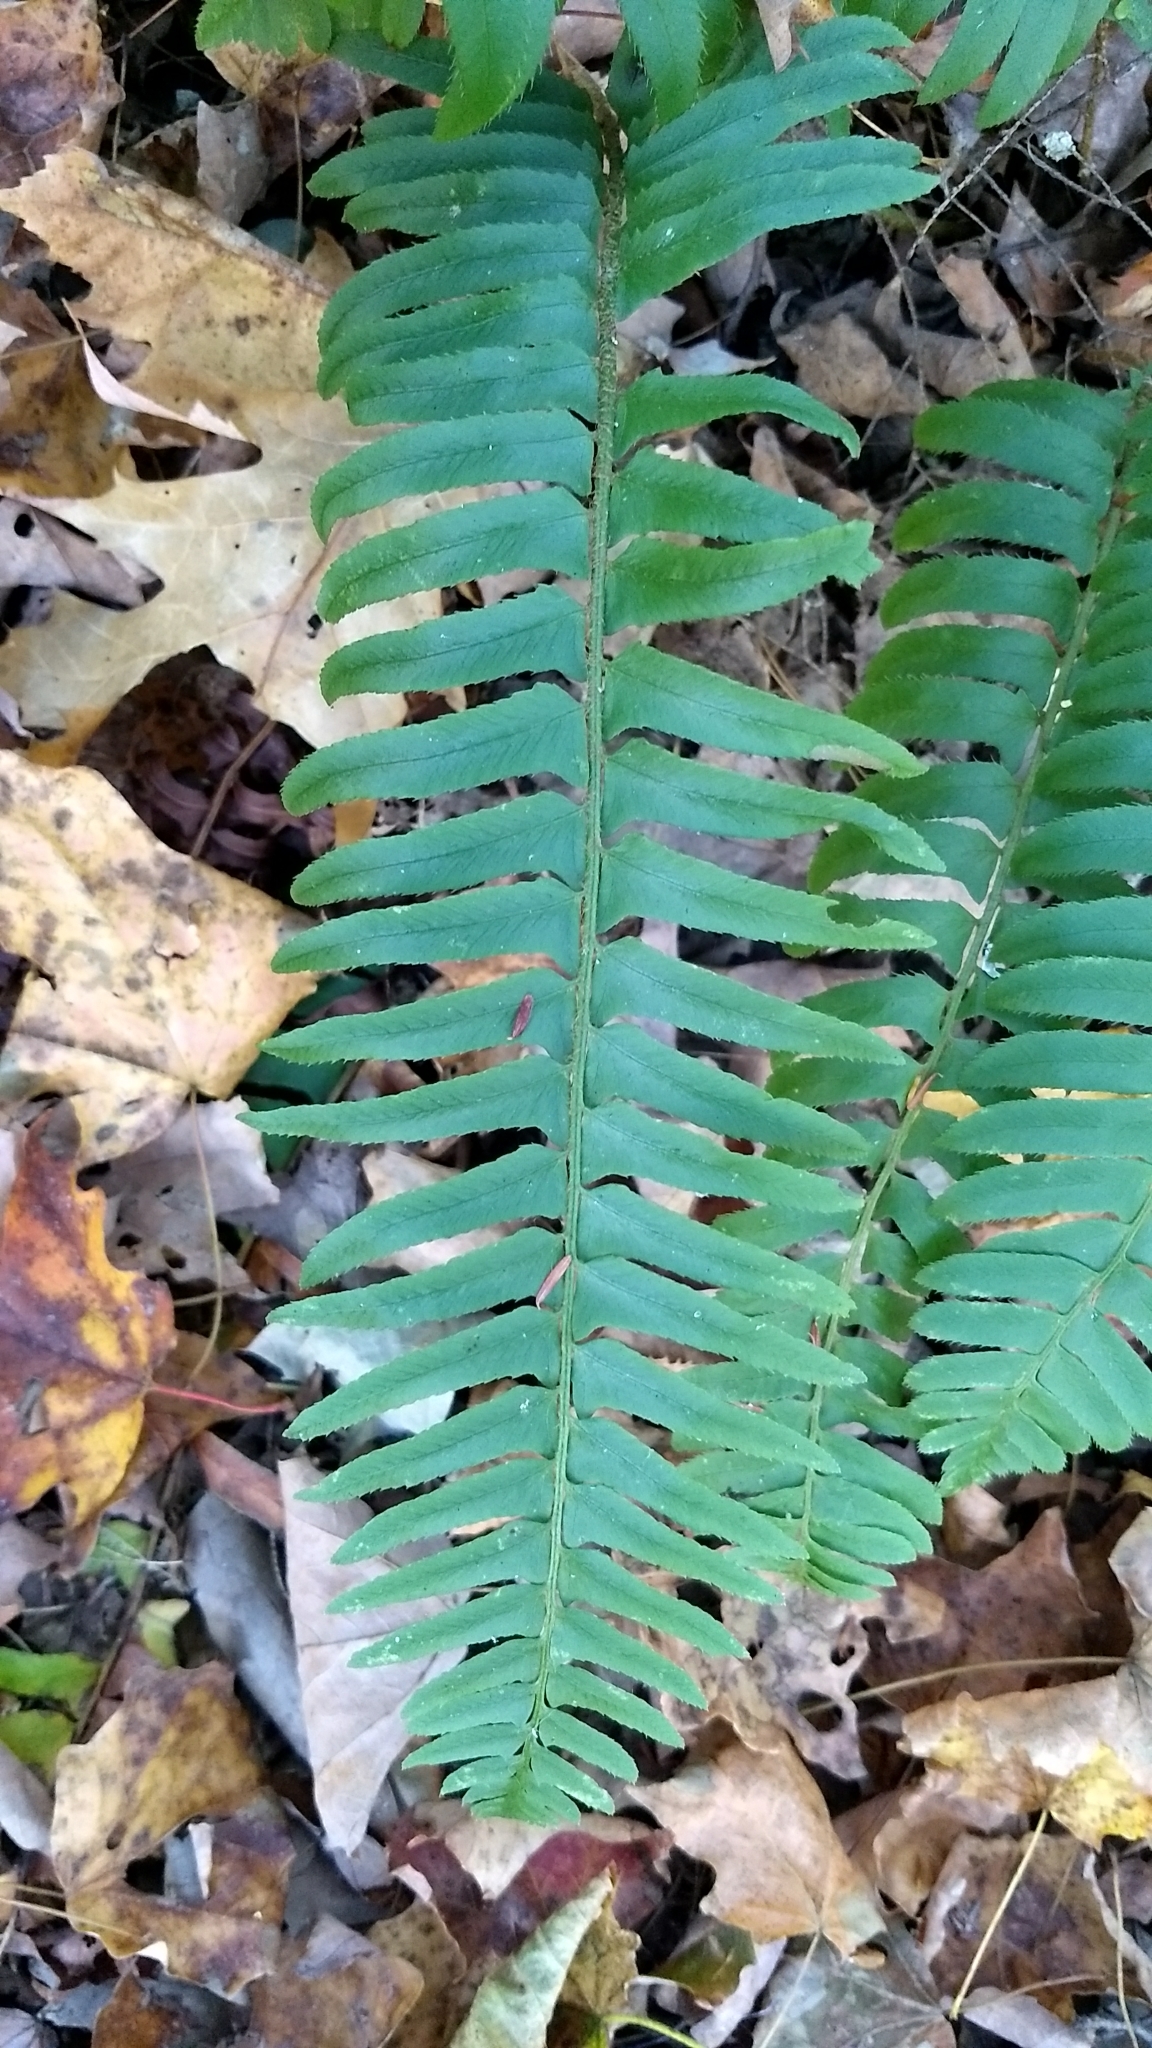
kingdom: Plantae
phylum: Tracheophyta
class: Polypodiopsida
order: Polypodiales
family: Dryopteridaceae
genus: Polystichum
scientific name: Polystichum acrostichoides
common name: Christmas fern
